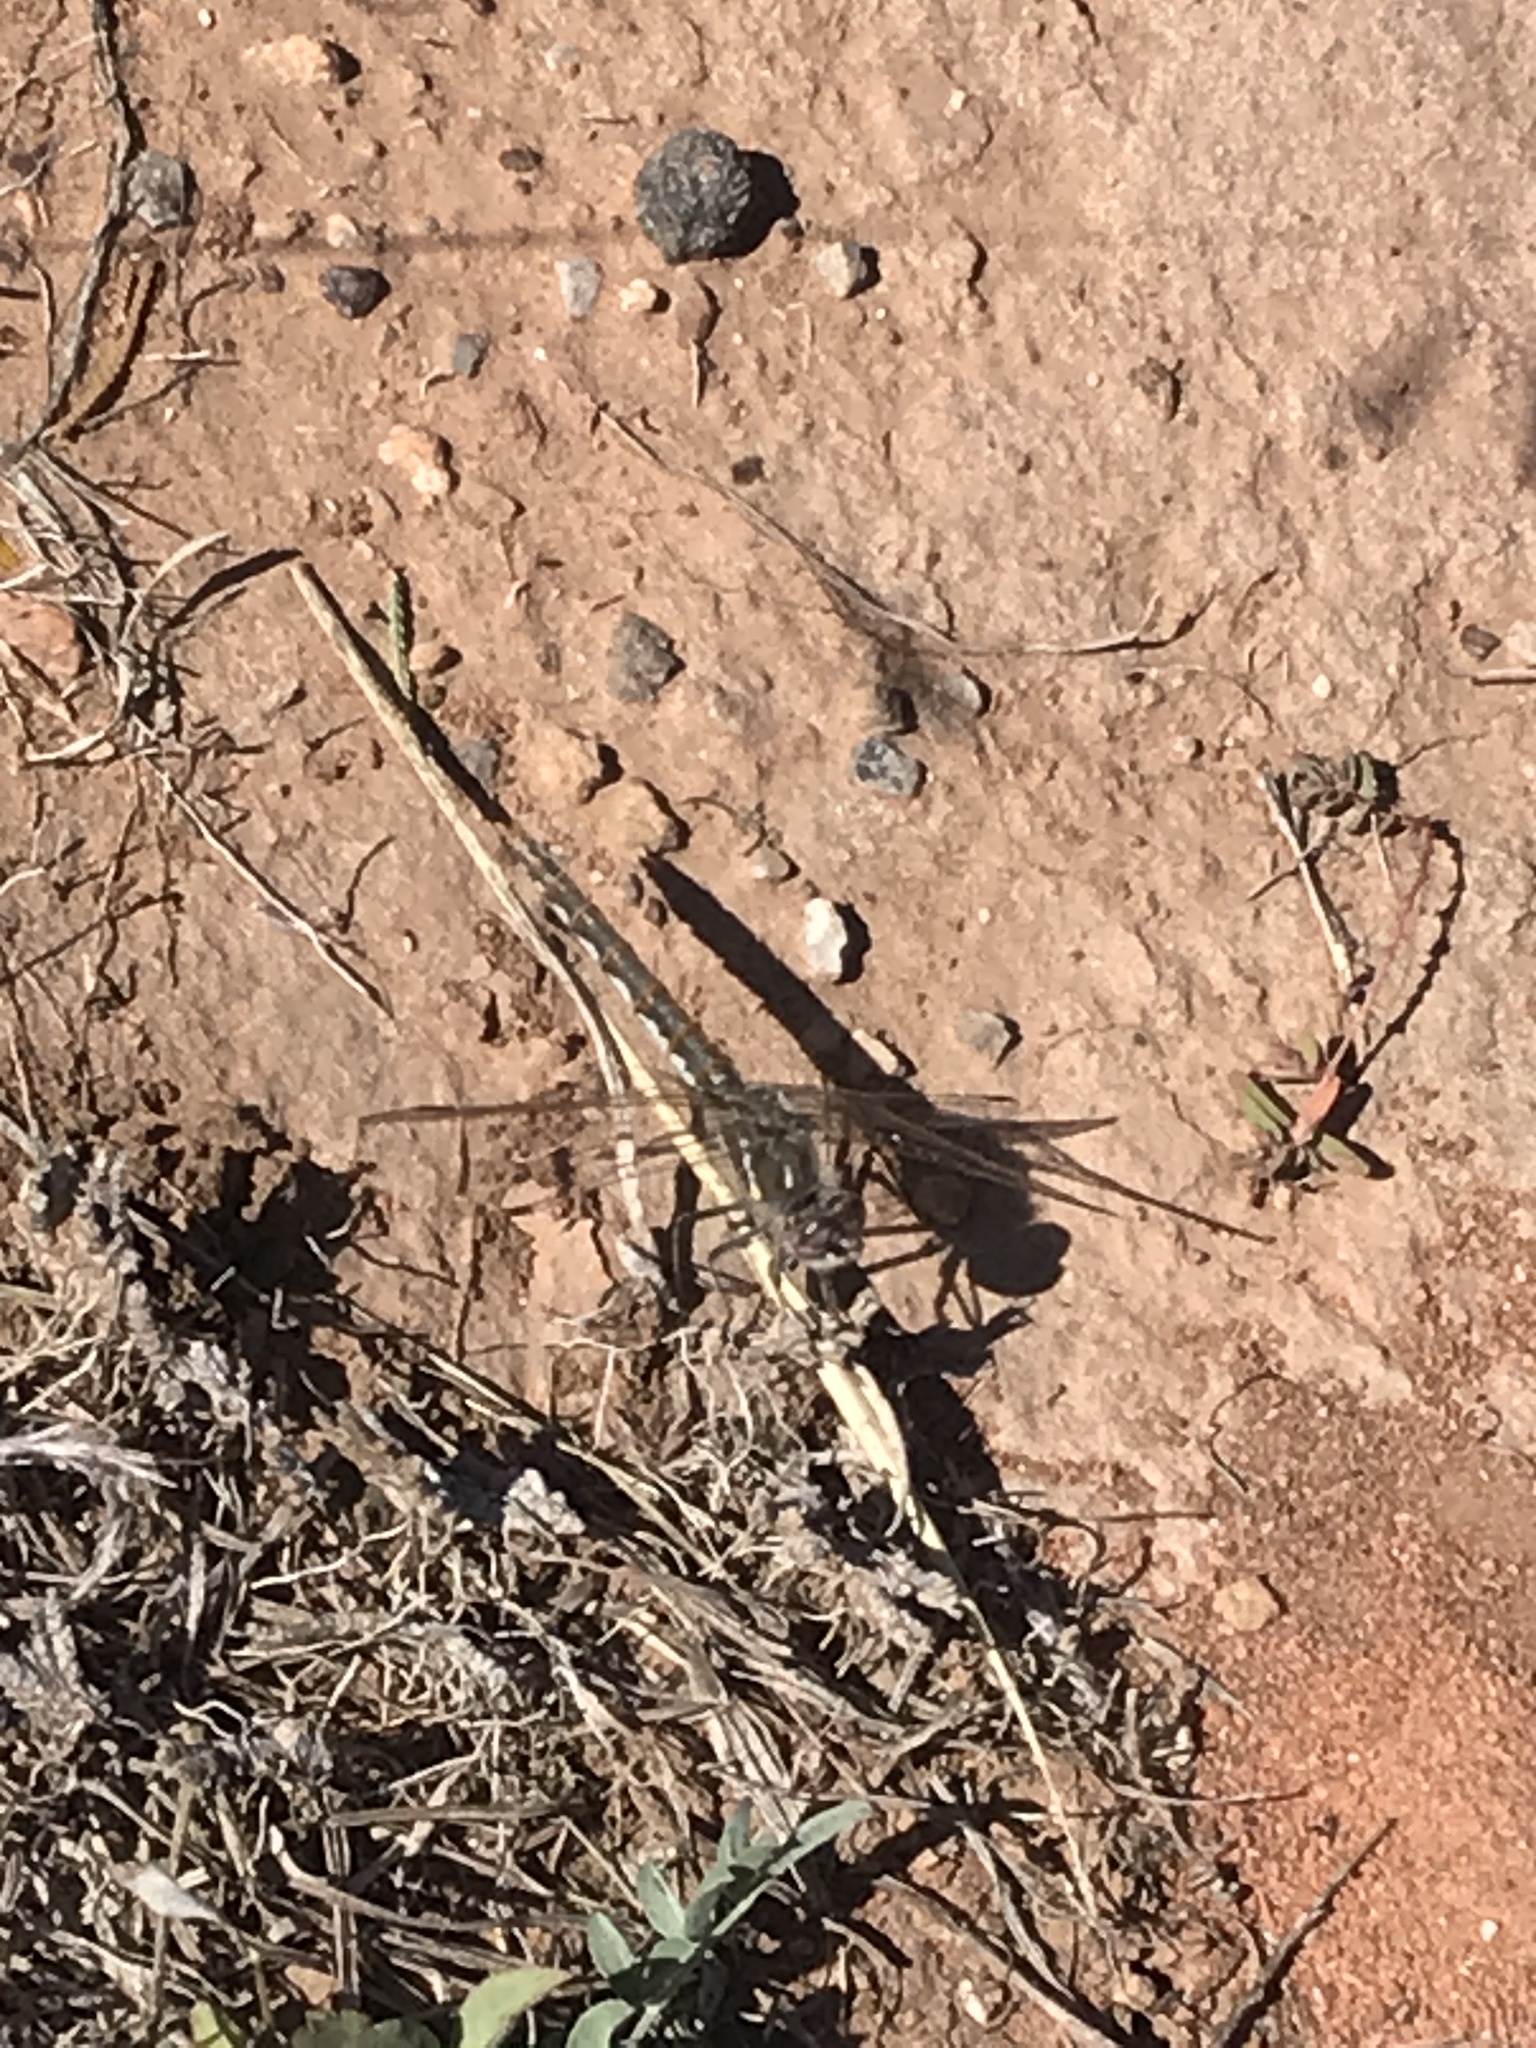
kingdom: Animalia
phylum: Arthropoda
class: Insecta
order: Odonata
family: Libellulidae
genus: Sympetrum
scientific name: Sympetrum corruptum
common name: Variegated meadowhawk
